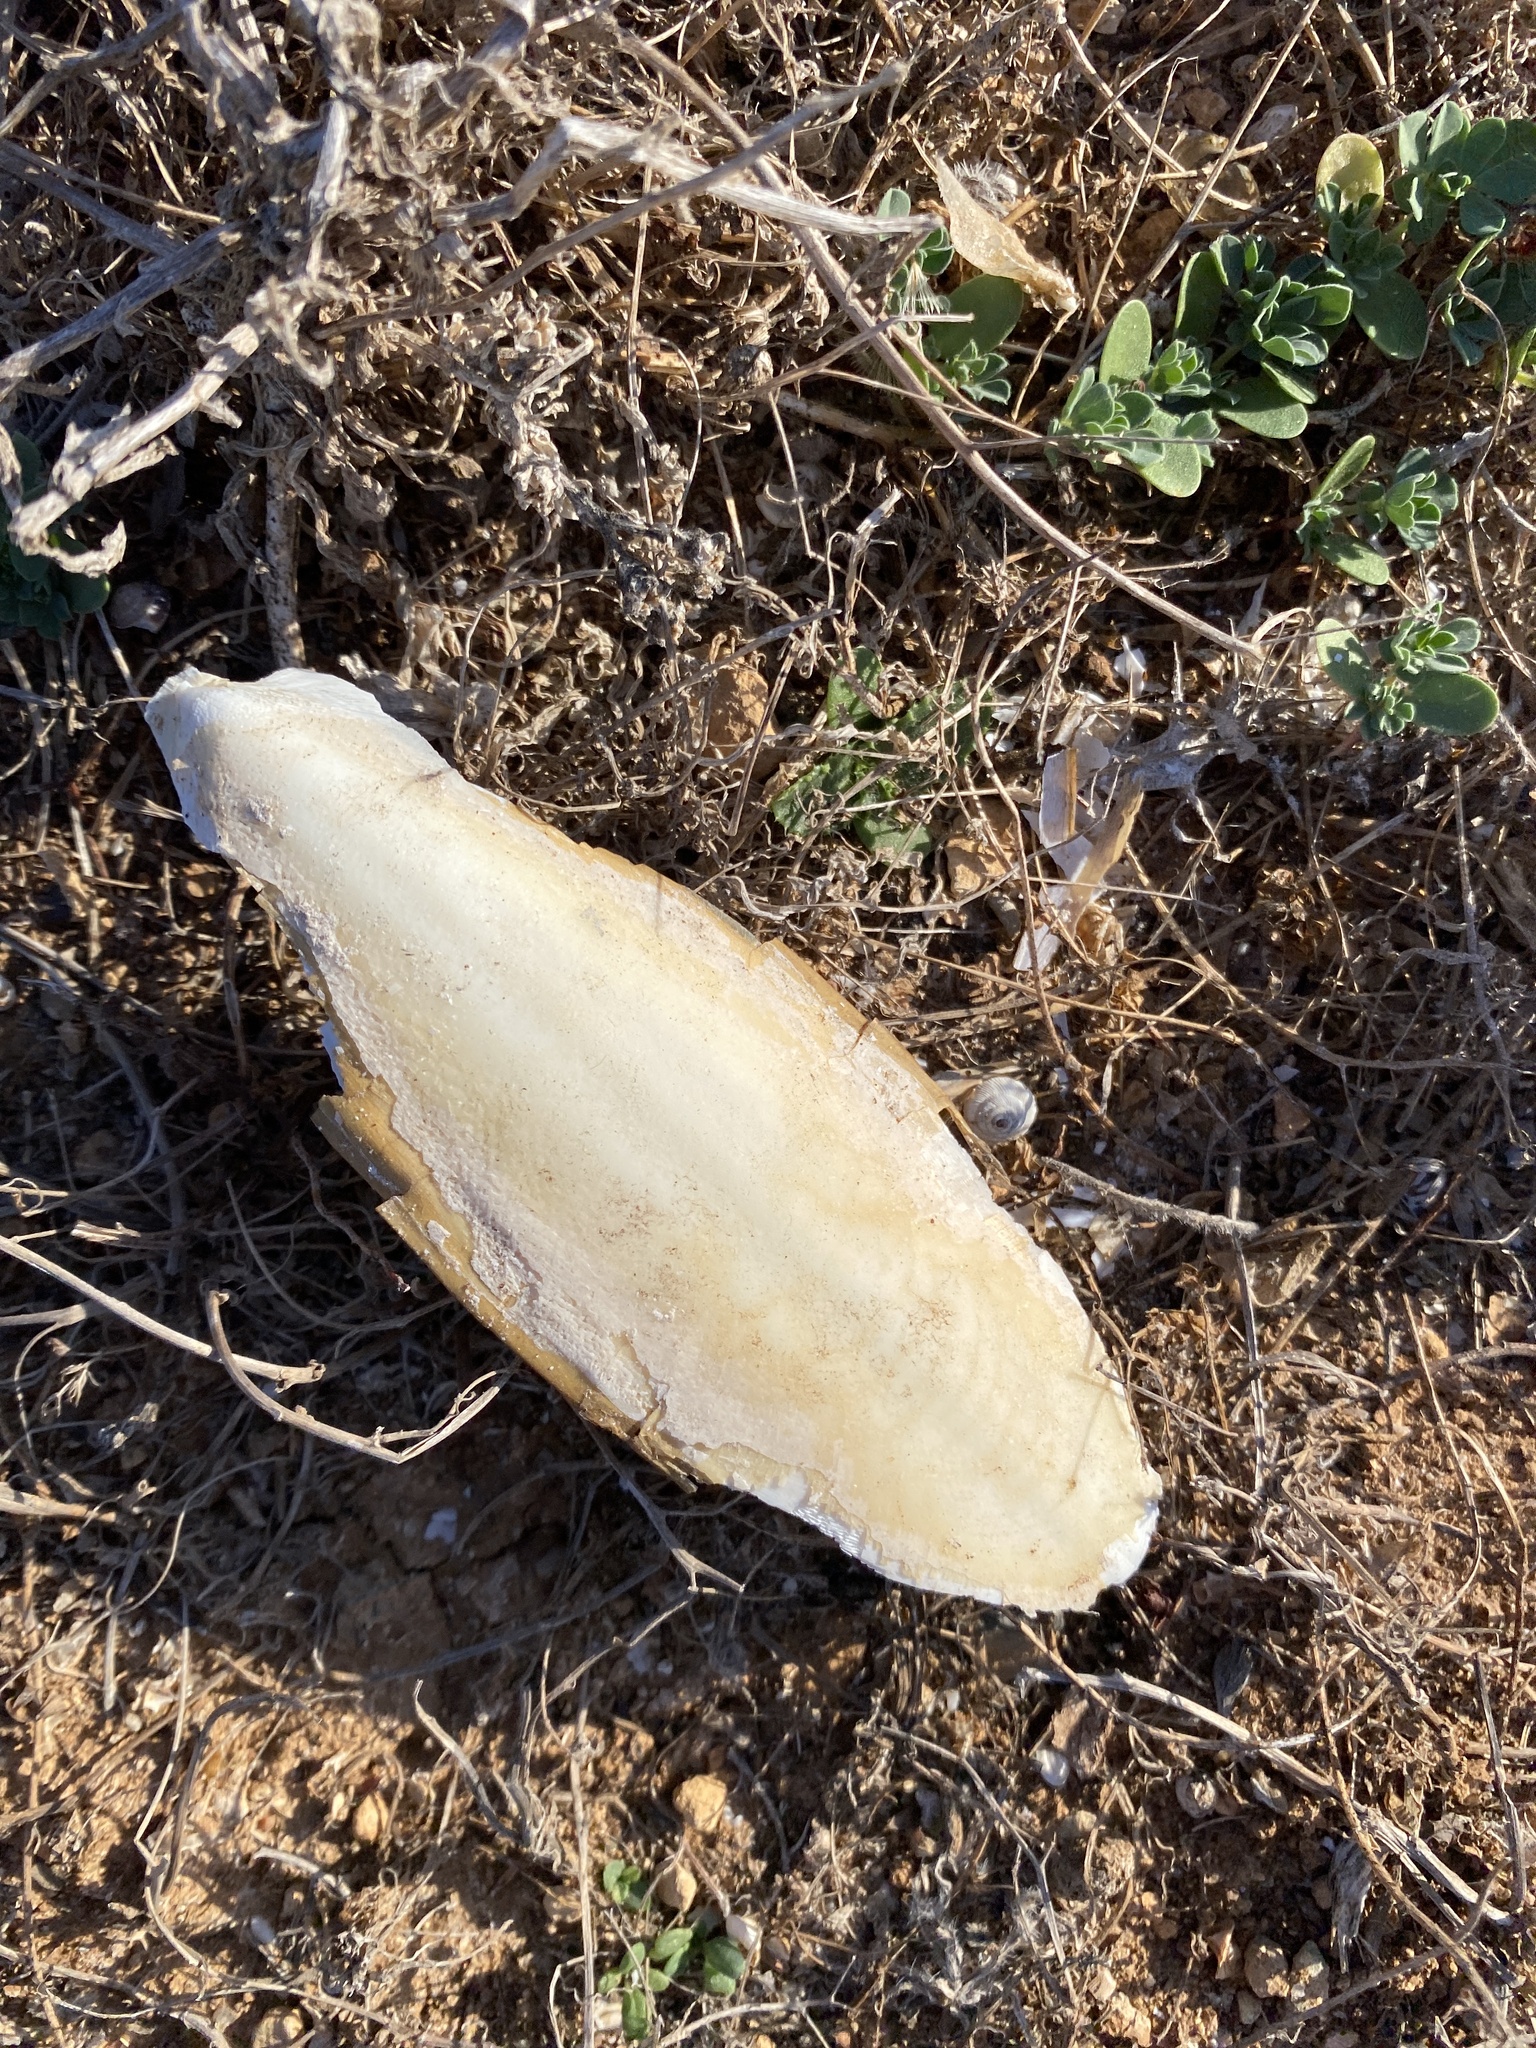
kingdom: Animalia
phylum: Mollusca
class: Cephalopoda
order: Sepiida
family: Sepiidae
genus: Sepia
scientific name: Sepia officinalis
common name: Common cuttlefish
